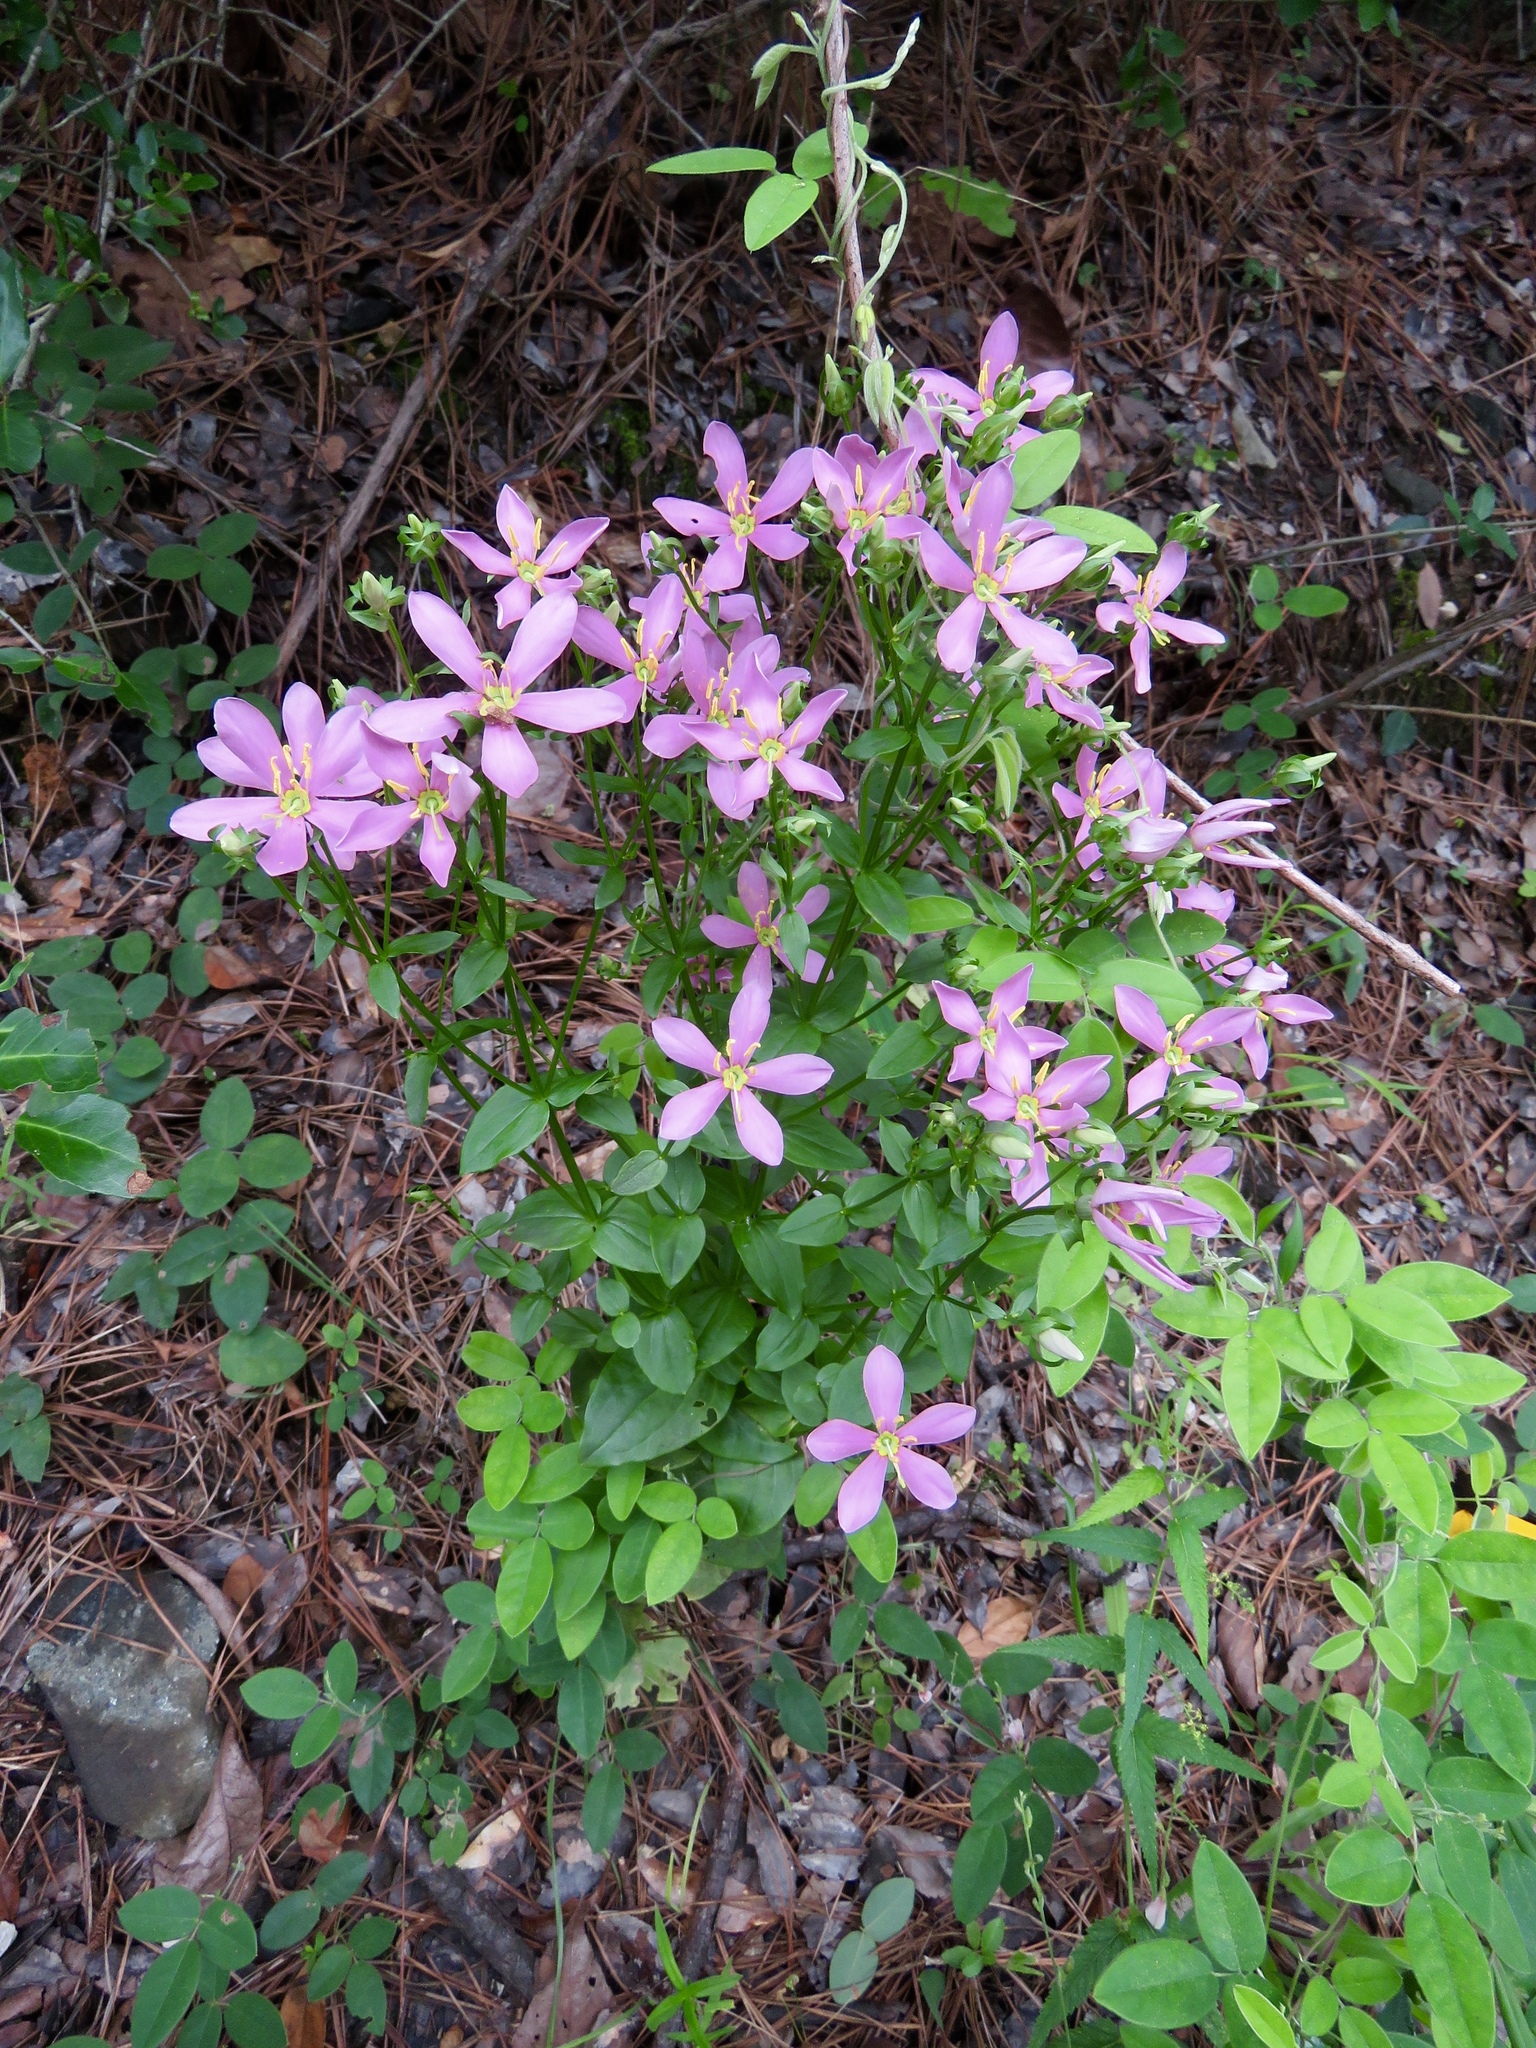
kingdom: Plantae
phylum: Tracheophyta
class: Magnoliopsida
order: Gentianales
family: Gentianaceae
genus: Sabatia
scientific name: Sabatia angularis
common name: Rose-pink
